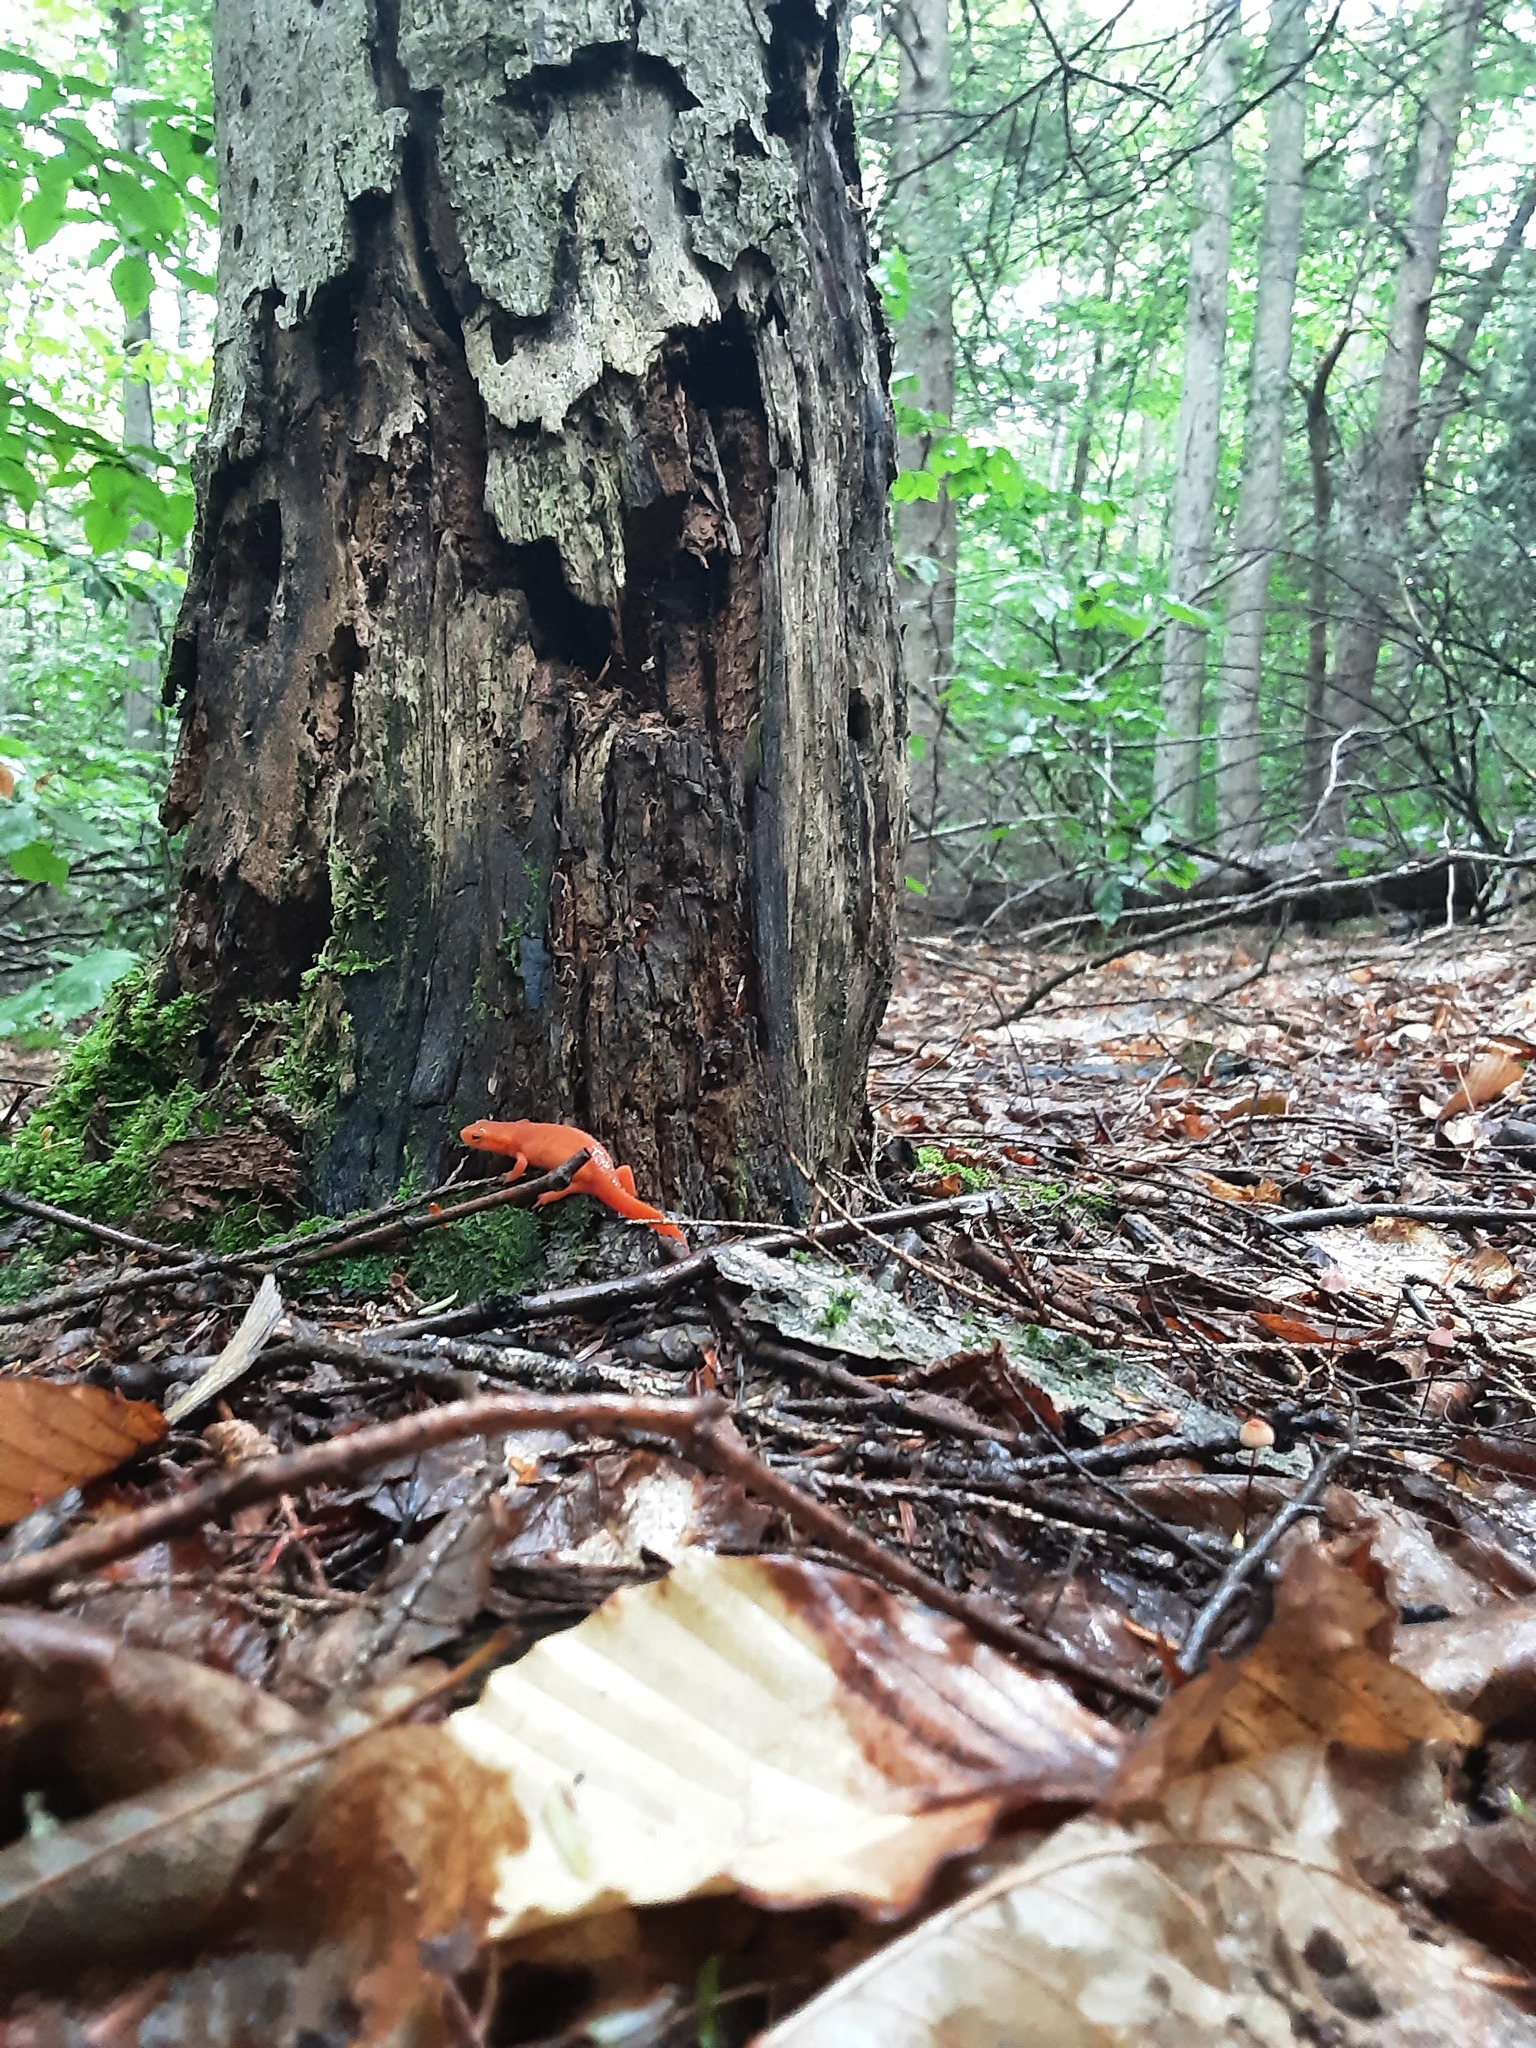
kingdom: Animalia
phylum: Chordata
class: Amphibia
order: Caudata
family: Salamandridae
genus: Notophthalmus
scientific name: Notophthalmus viridescens
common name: Eastern newt
